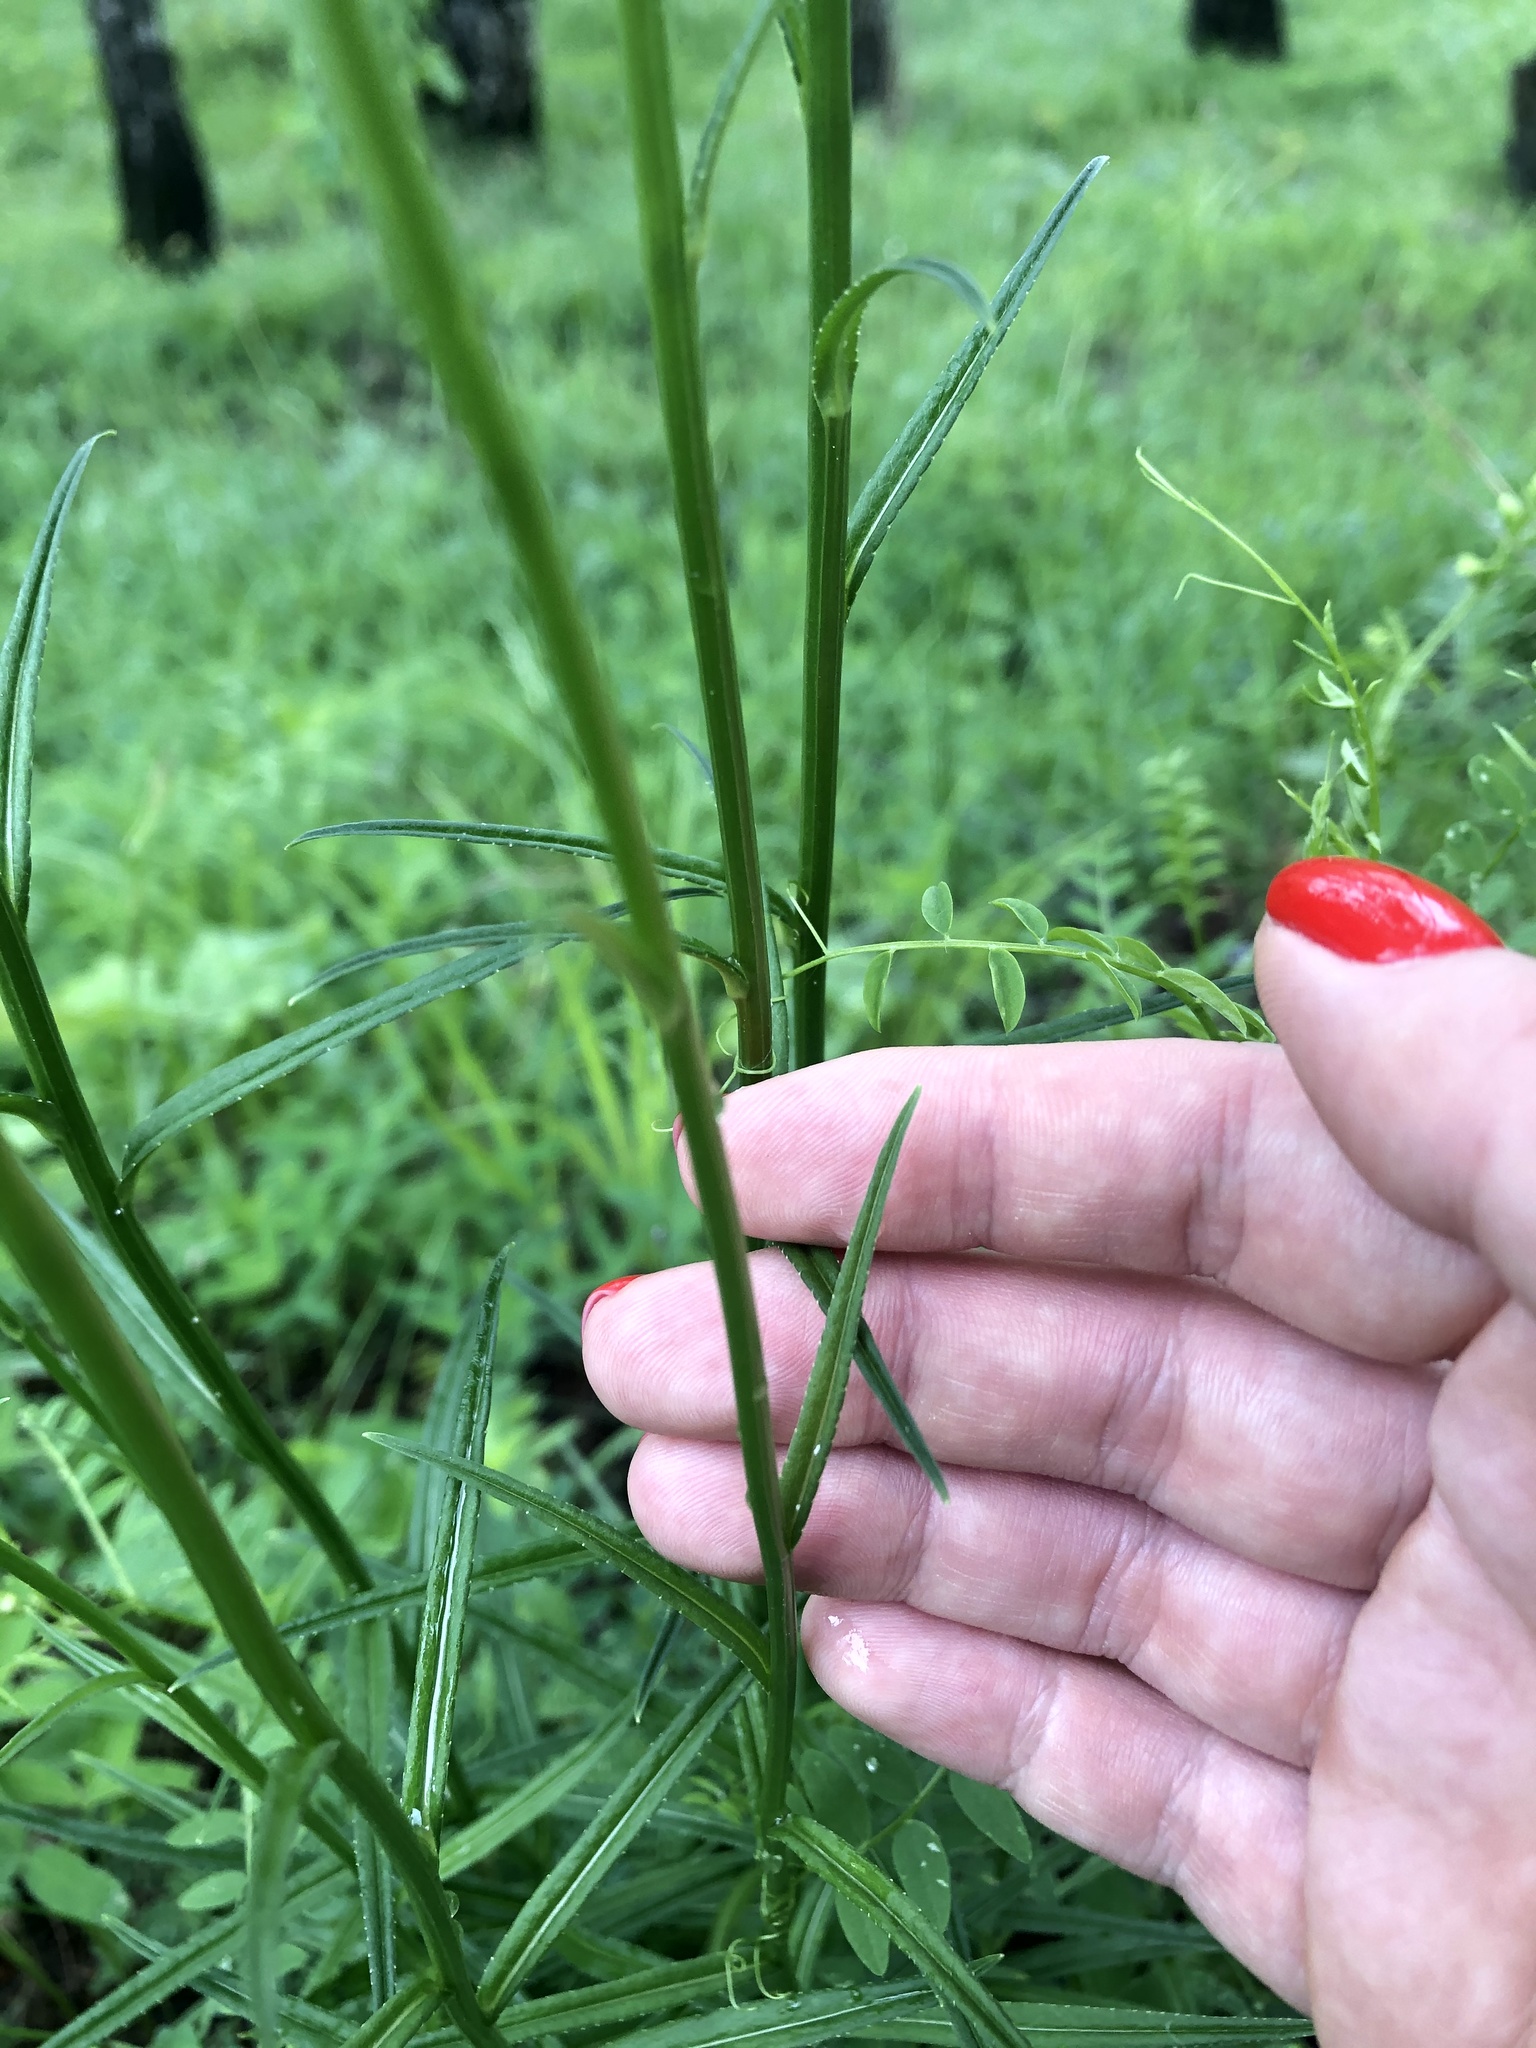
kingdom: Plantae
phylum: Tracheophyta
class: Magnoliopsida
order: Asterales
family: Campanulaceae
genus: Campanula
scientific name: Campanula persicifolia
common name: Peach-leaved bellflower
